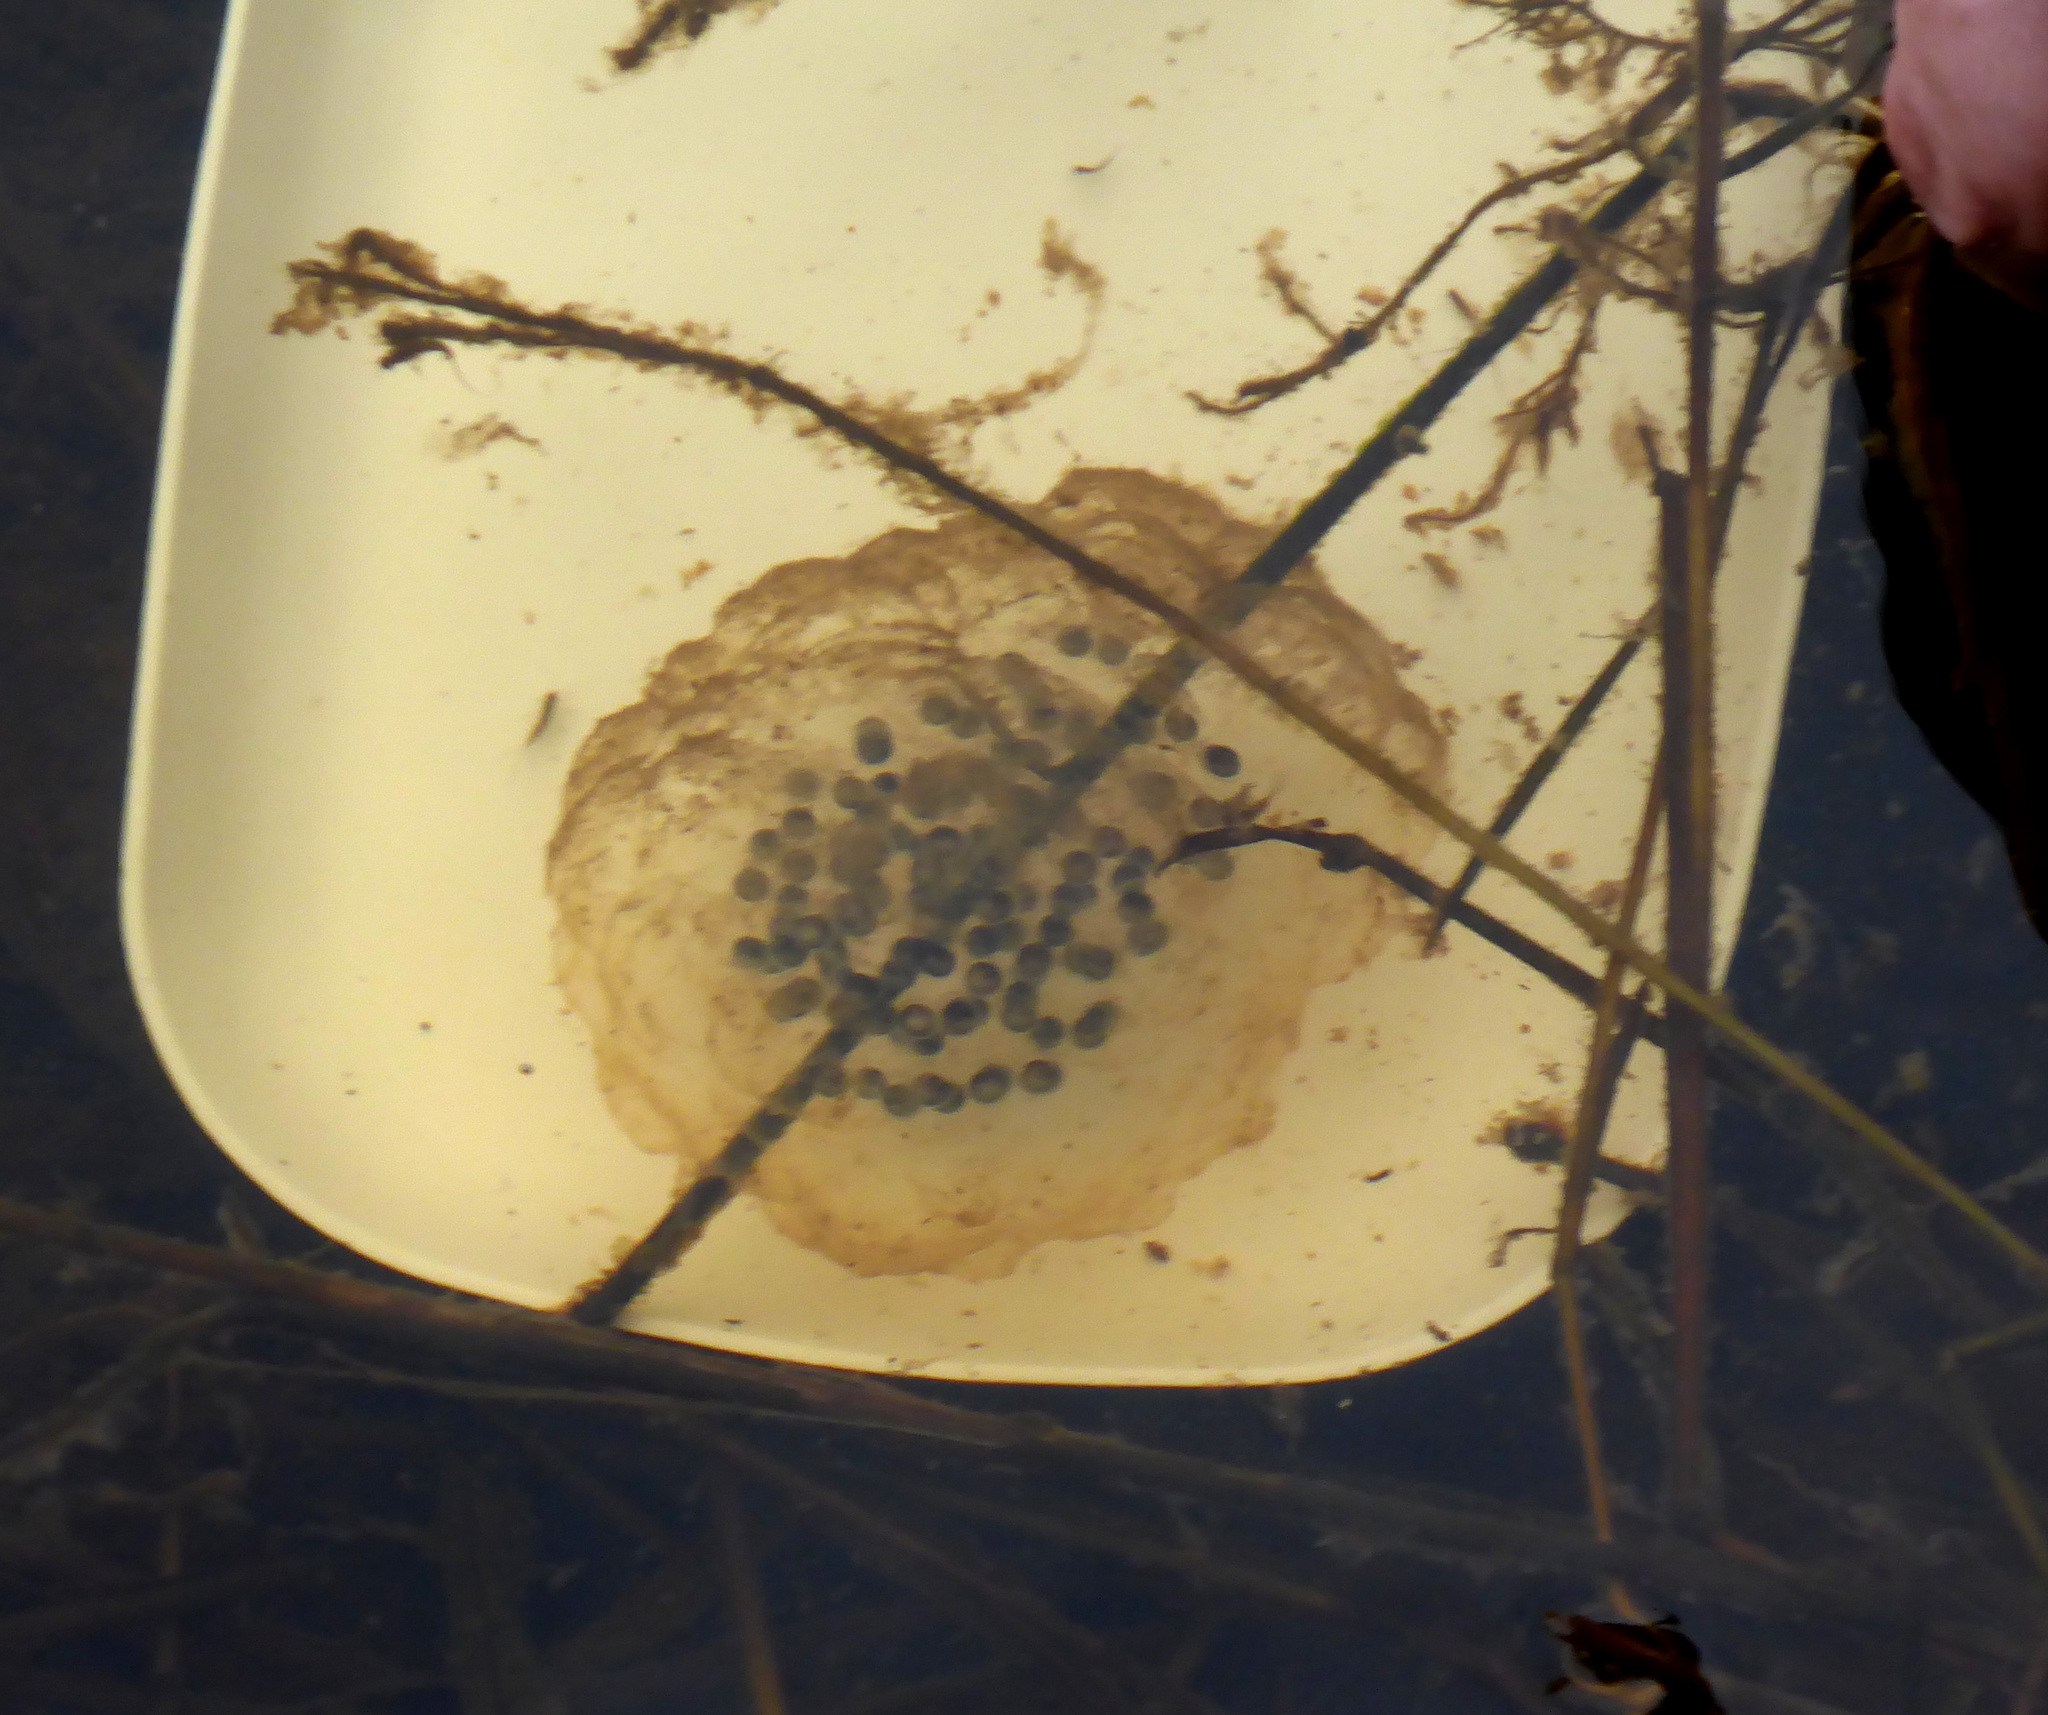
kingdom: Animalia
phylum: Chordata
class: Amphibia
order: Caudata
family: Ambystomatidae
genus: Ambystoma
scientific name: Ambystoma gracile
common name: Northwestern salamander
